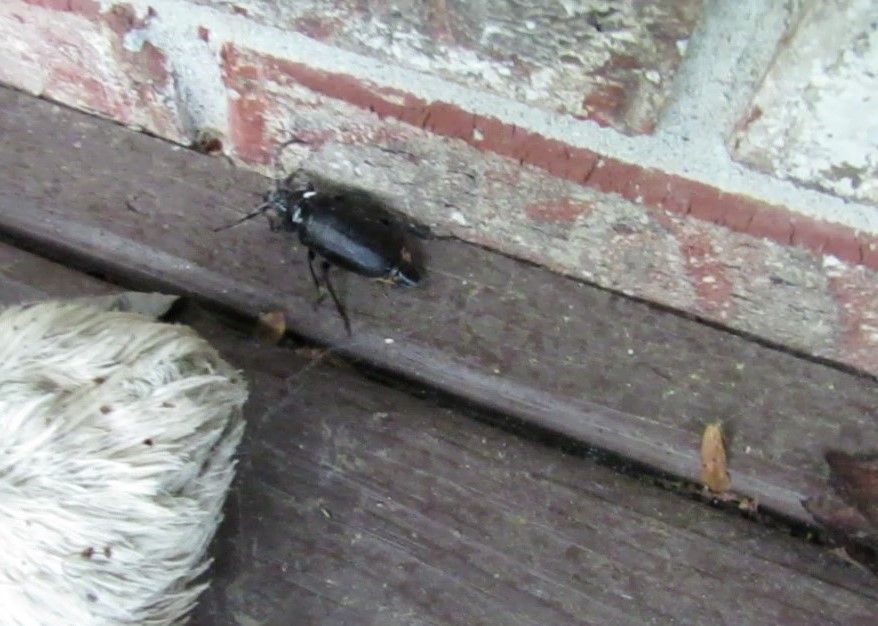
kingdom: Animalia
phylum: Arthropoda
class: Insecta
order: Coleoptera
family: Cerambycidae
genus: Prionus
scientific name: Prionus laticollis
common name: Broad necked prionus
